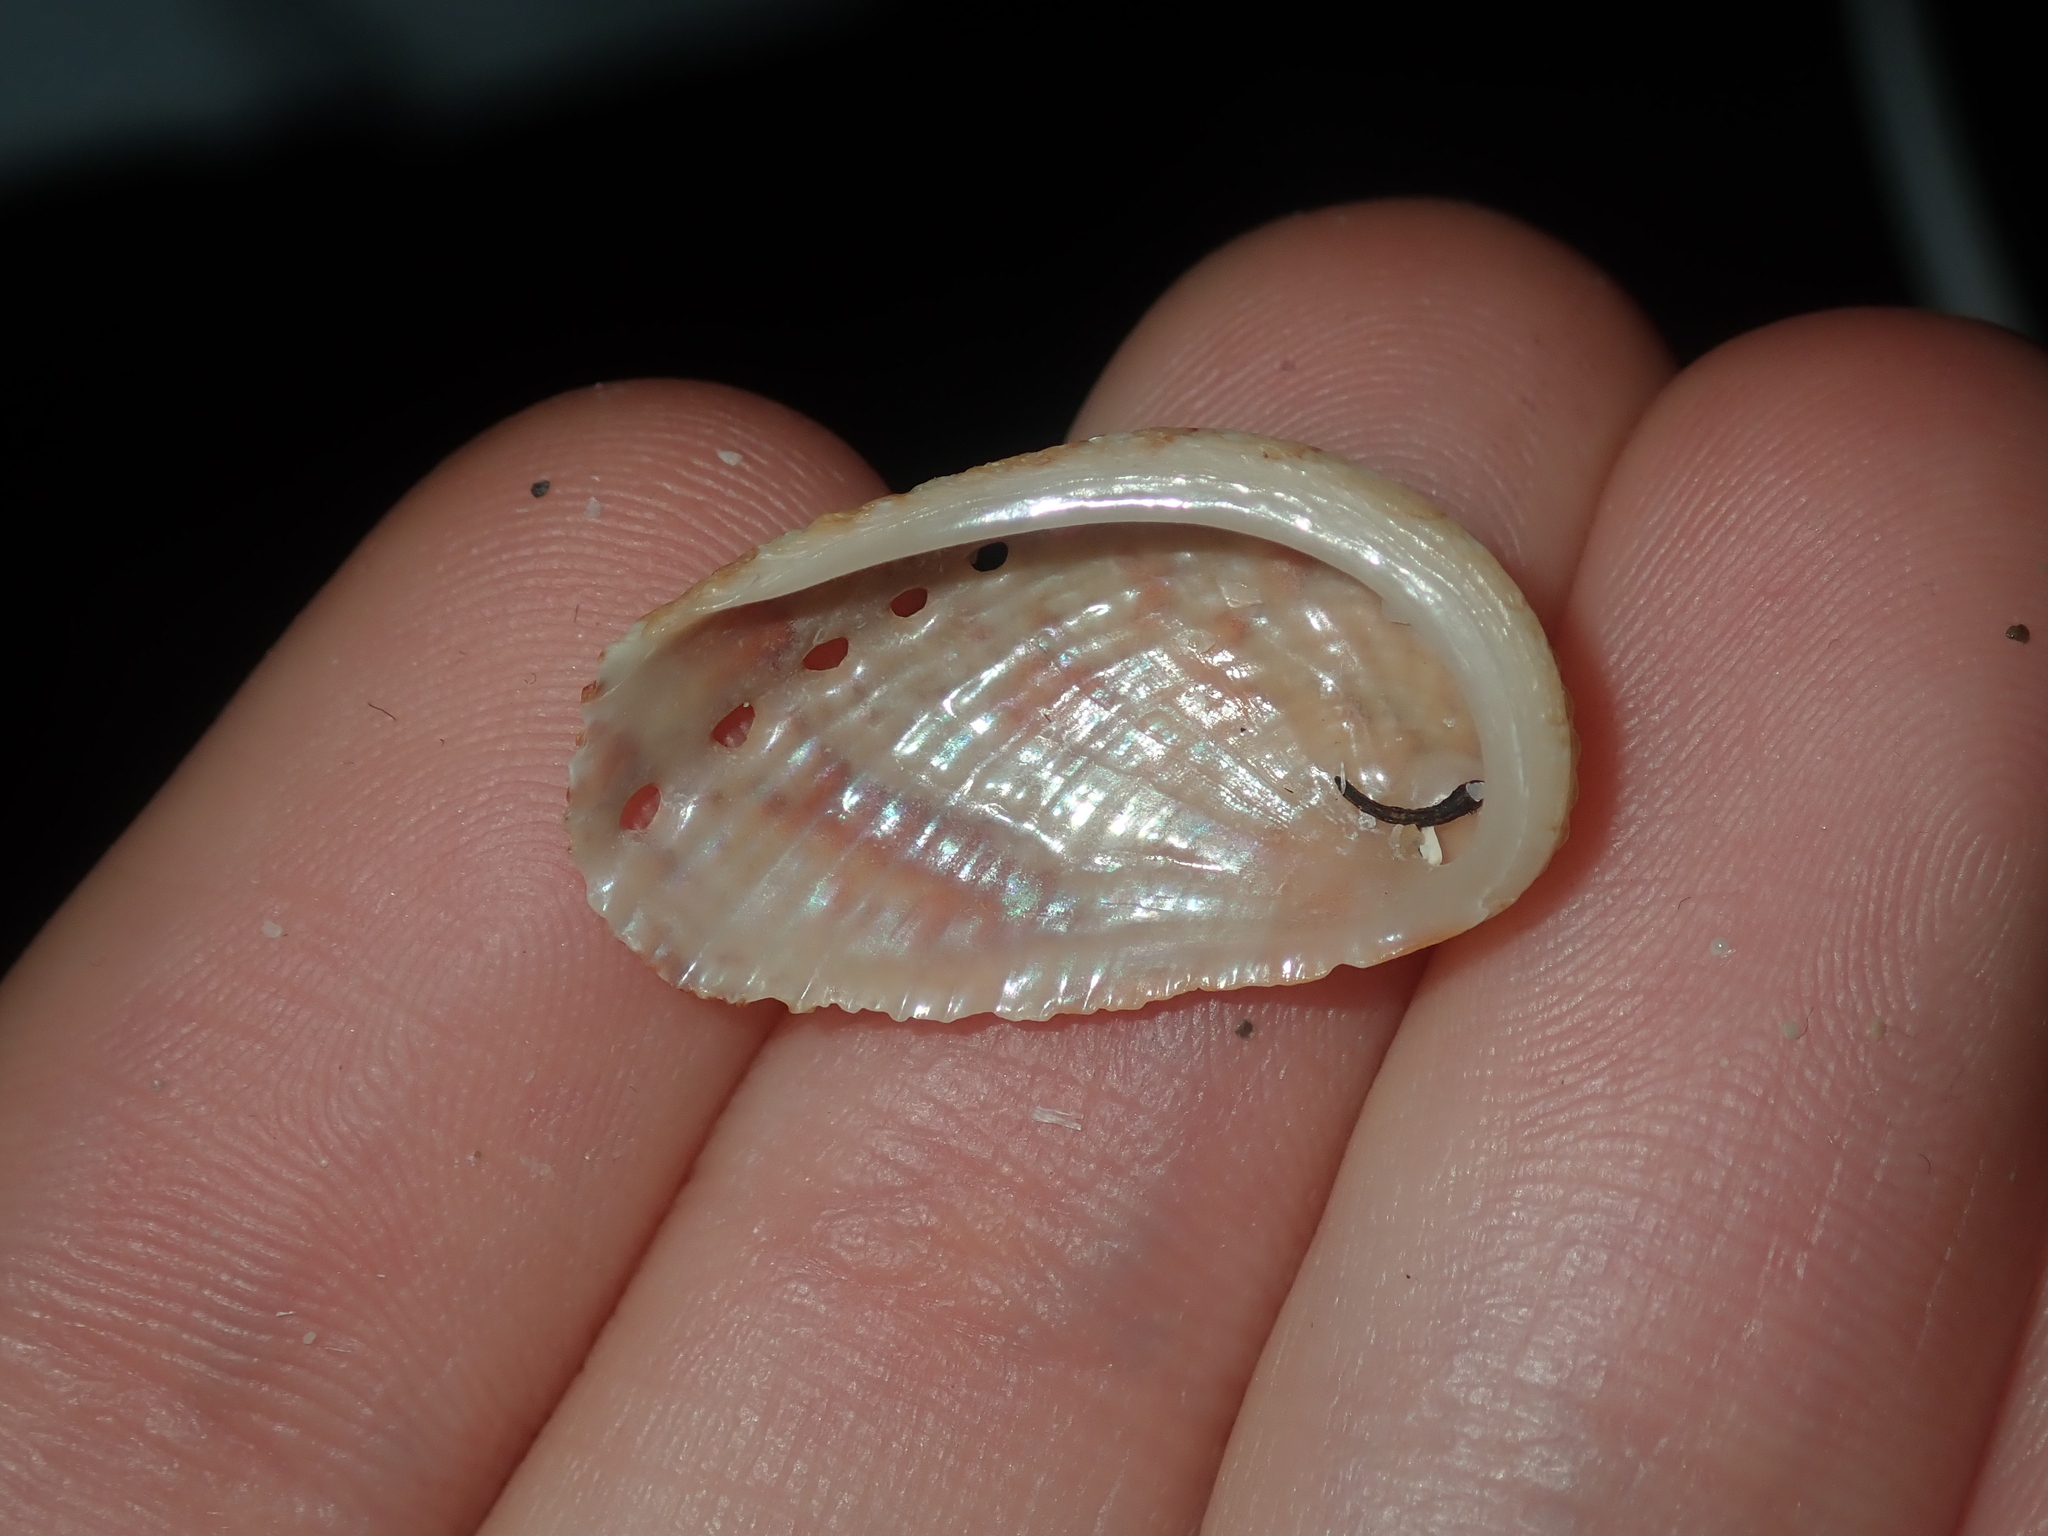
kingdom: Animalia
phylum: Mollusca
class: Gastropoda
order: Lepetellida
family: Haliotidae
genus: Haliotis
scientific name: Haliotis elegans
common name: Elegant abalone
